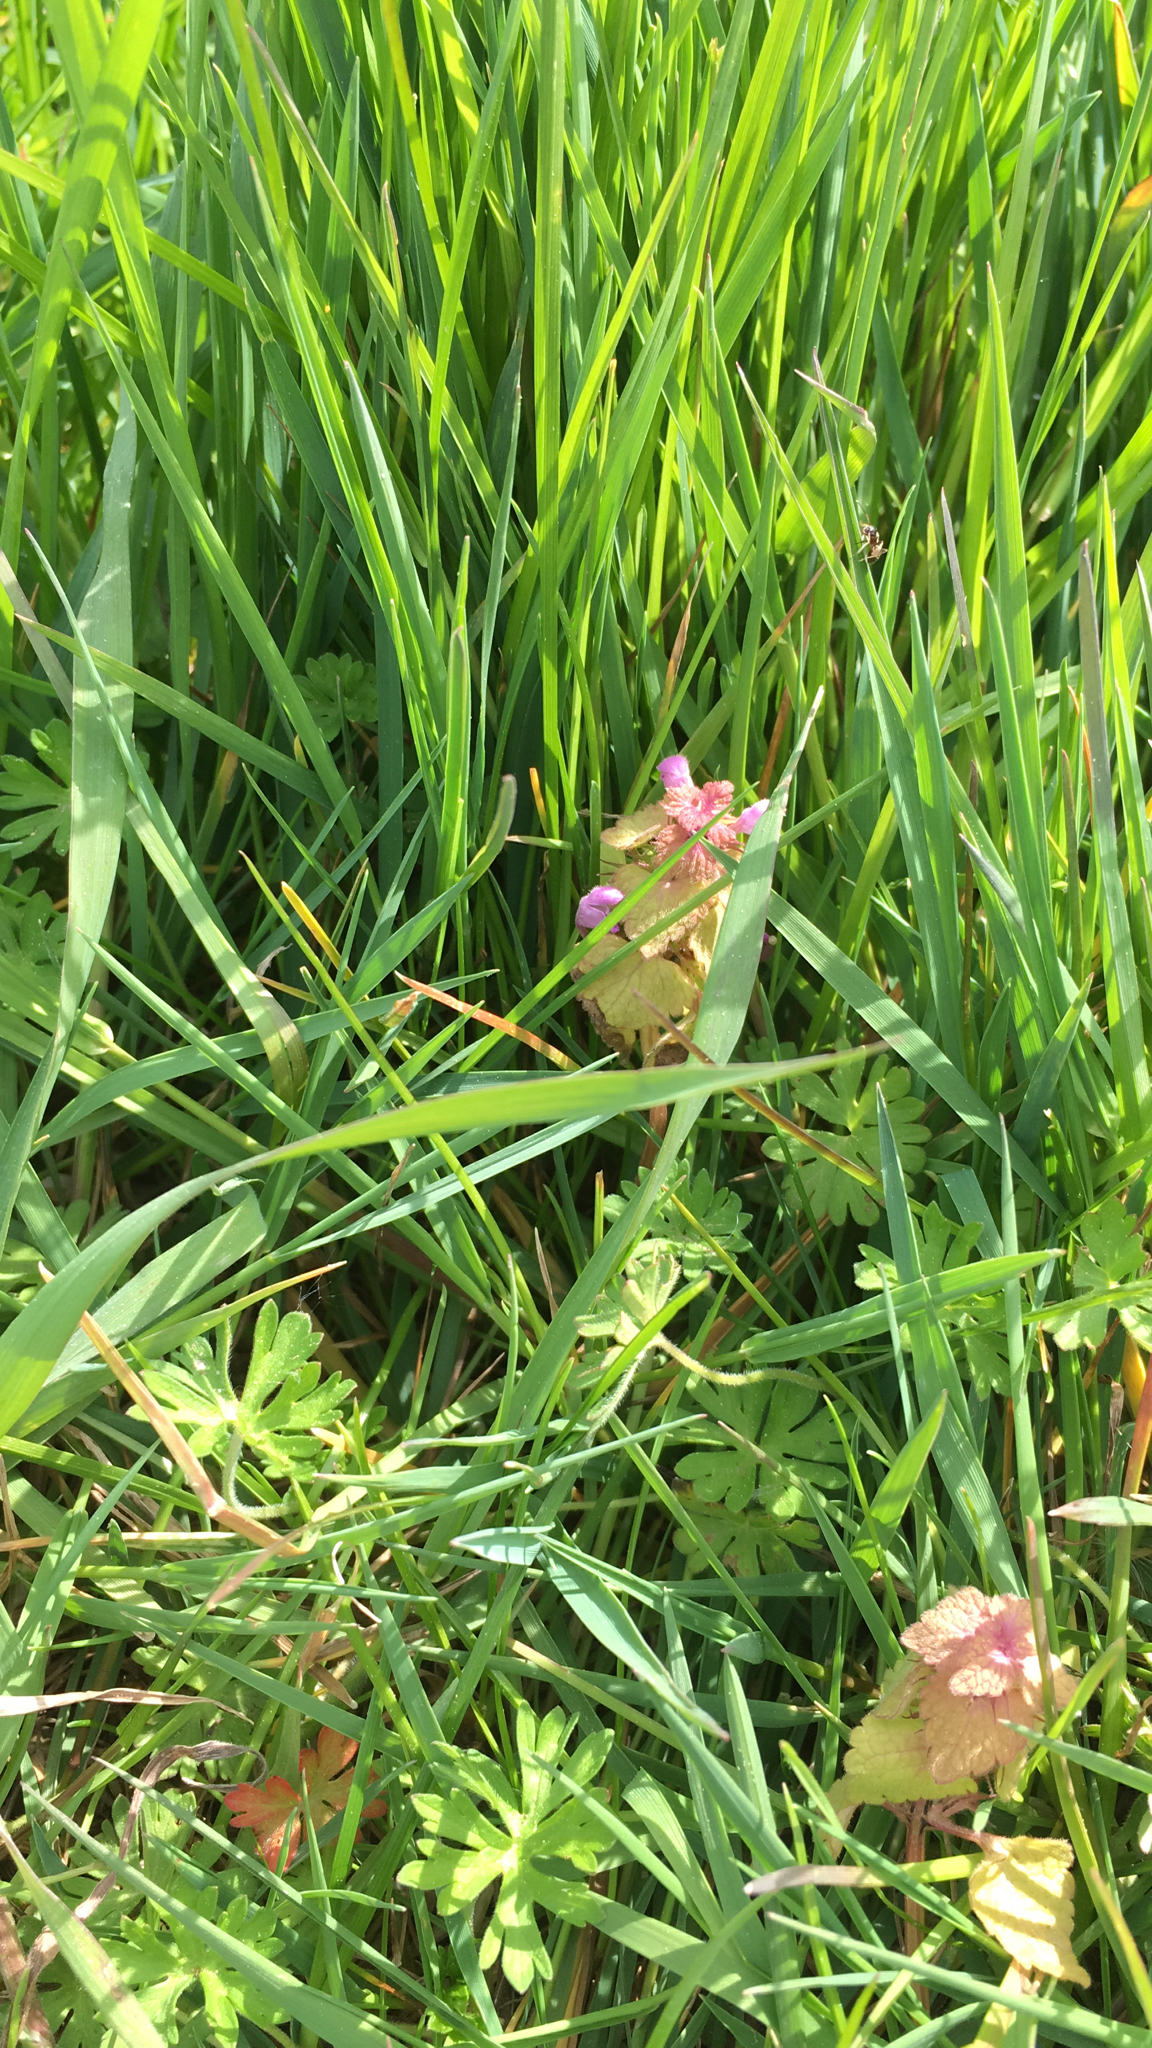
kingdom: Plantae
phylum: Tracheophyta
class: Magnoliopsida
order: Lamiales
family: Lamiaceae
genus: Lamium
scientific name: Lamium purpureum
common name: Red dead-nettle
